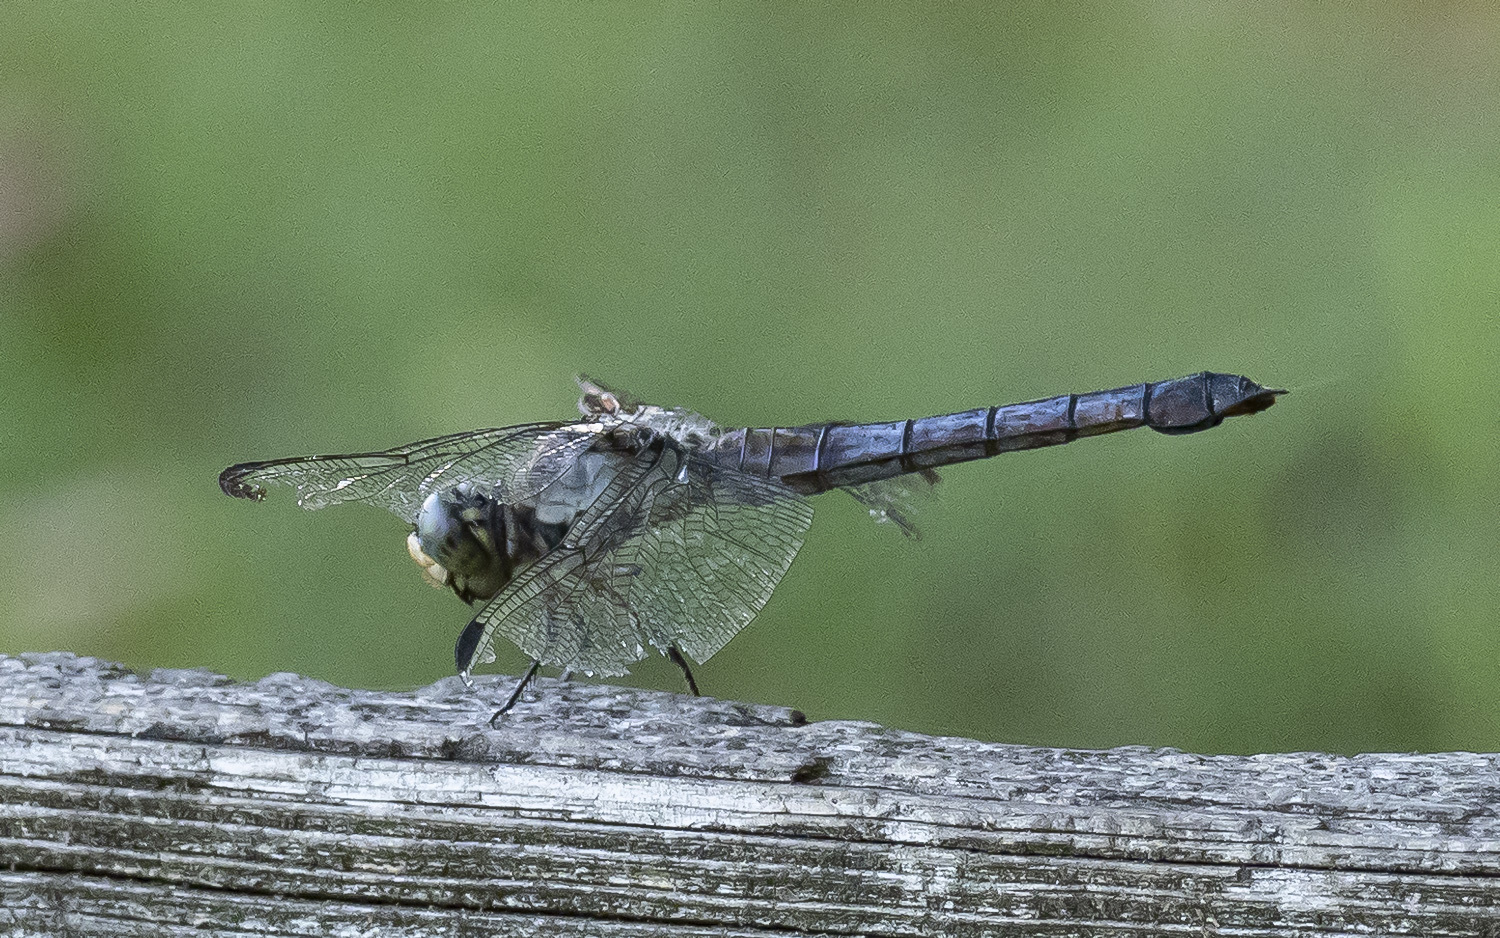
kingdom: Animalia
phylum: Arthropoda
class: Insecta
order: Odonata
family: Libellulidae
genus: Libellula
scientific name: Libellula vibrans
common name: Great blue skimmer
